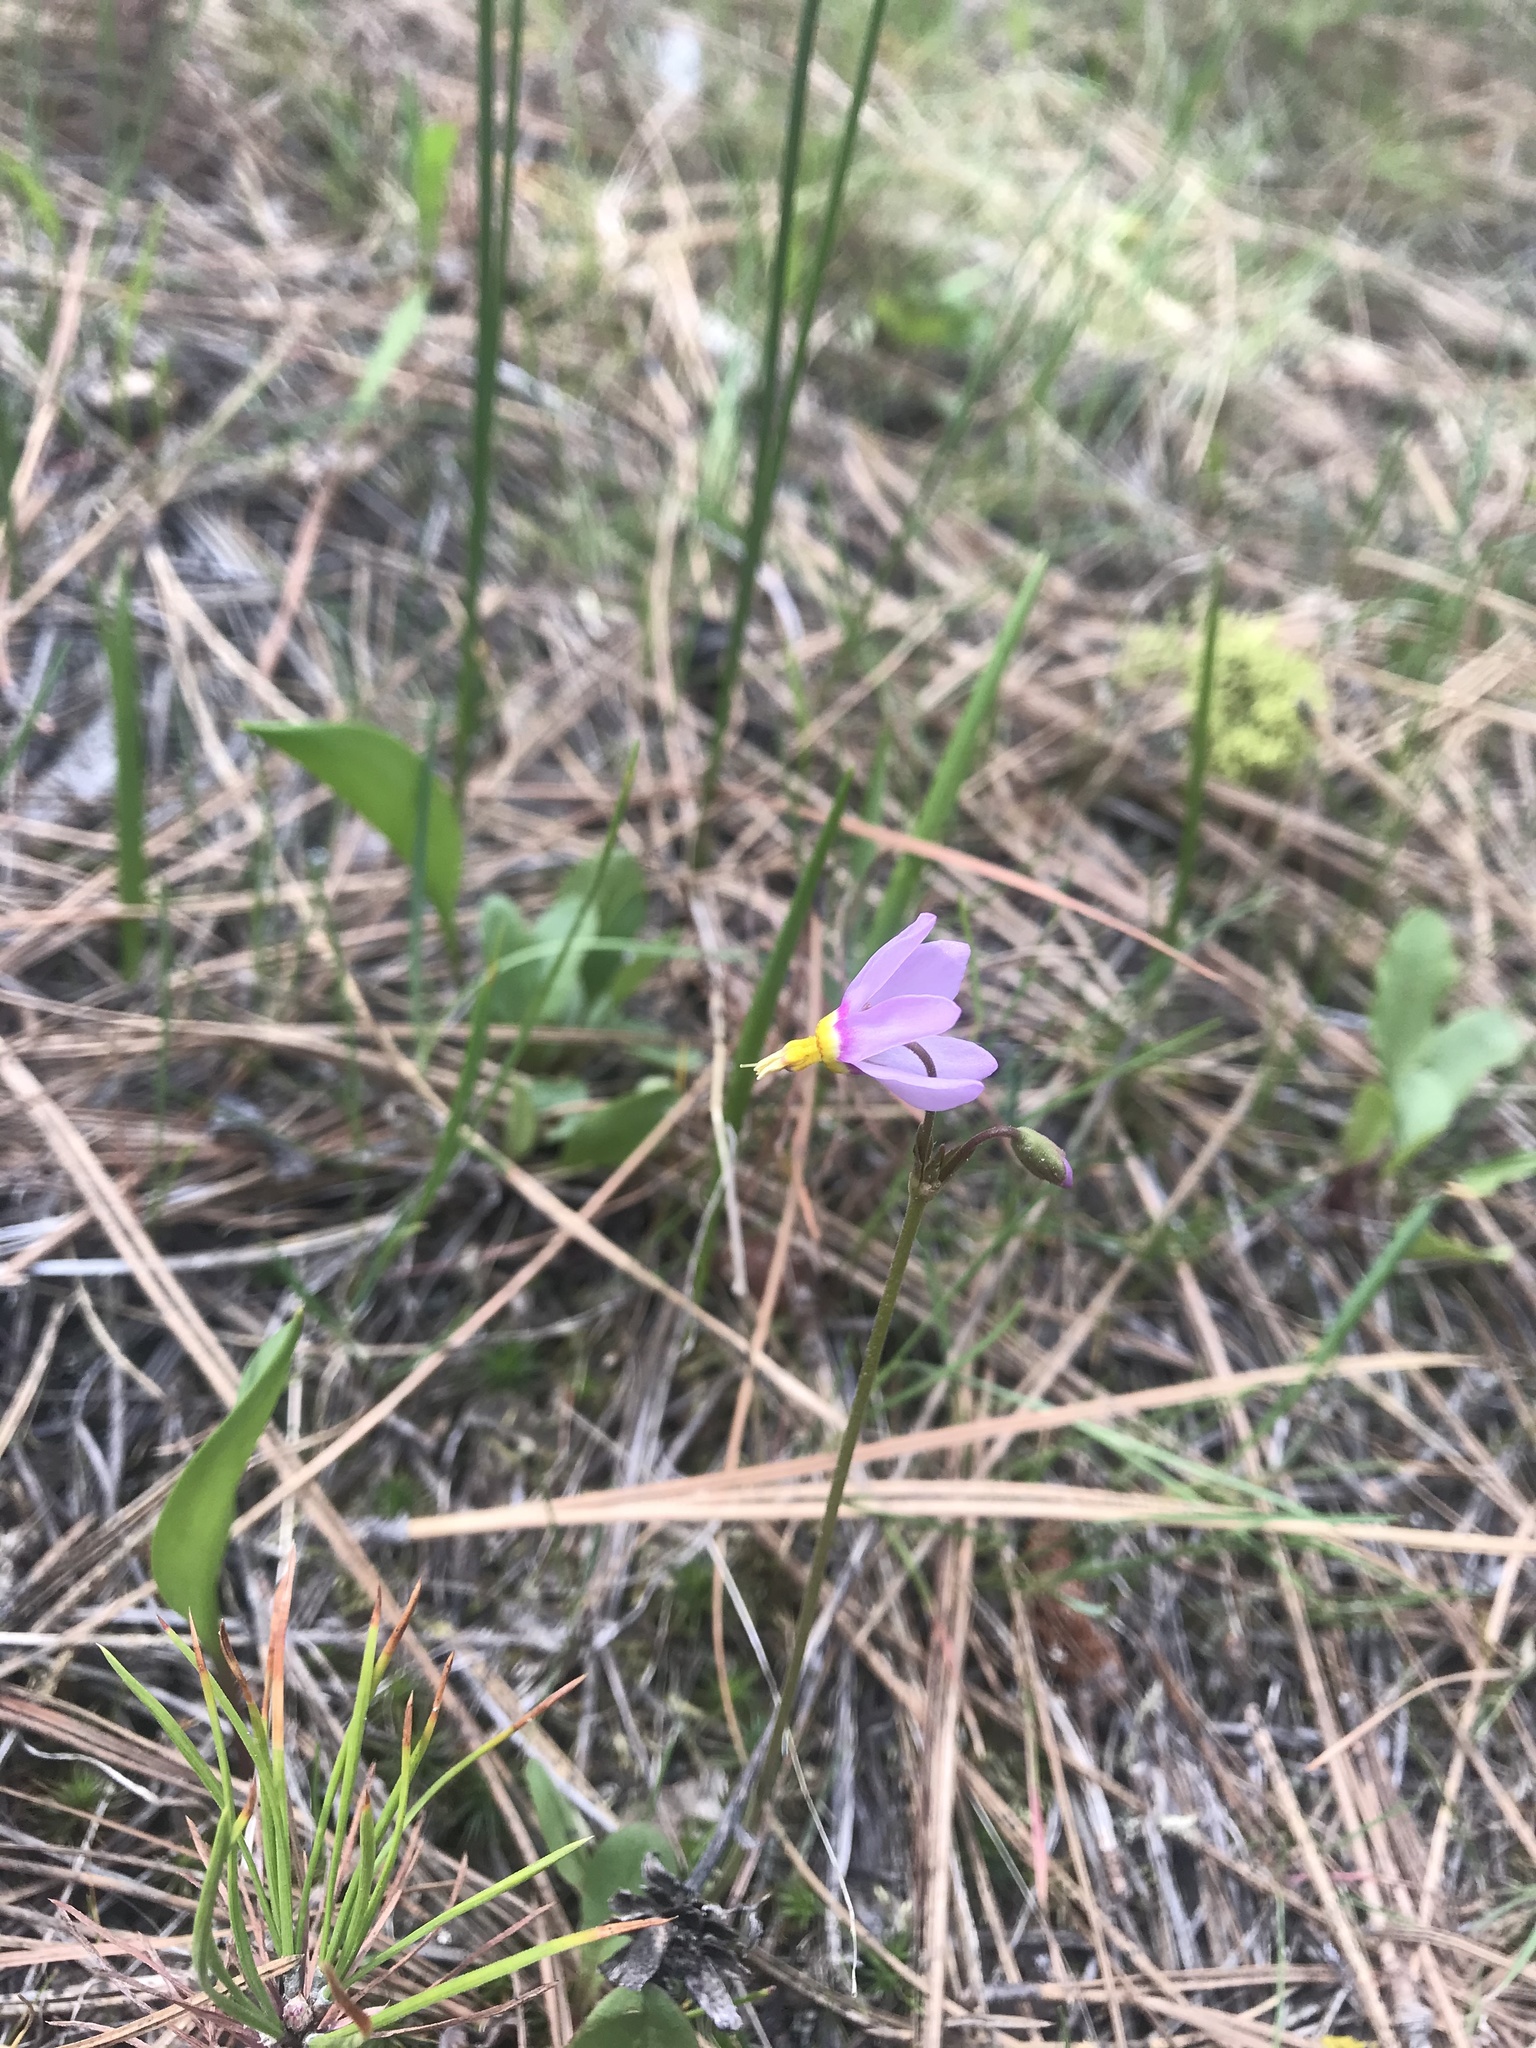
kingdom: Plantae
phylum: Tracheophyta
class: Magnoliopsida
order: Ericales
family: Primulaceae
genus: Dodecatheon
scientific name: Dodecatheon pulchellum
